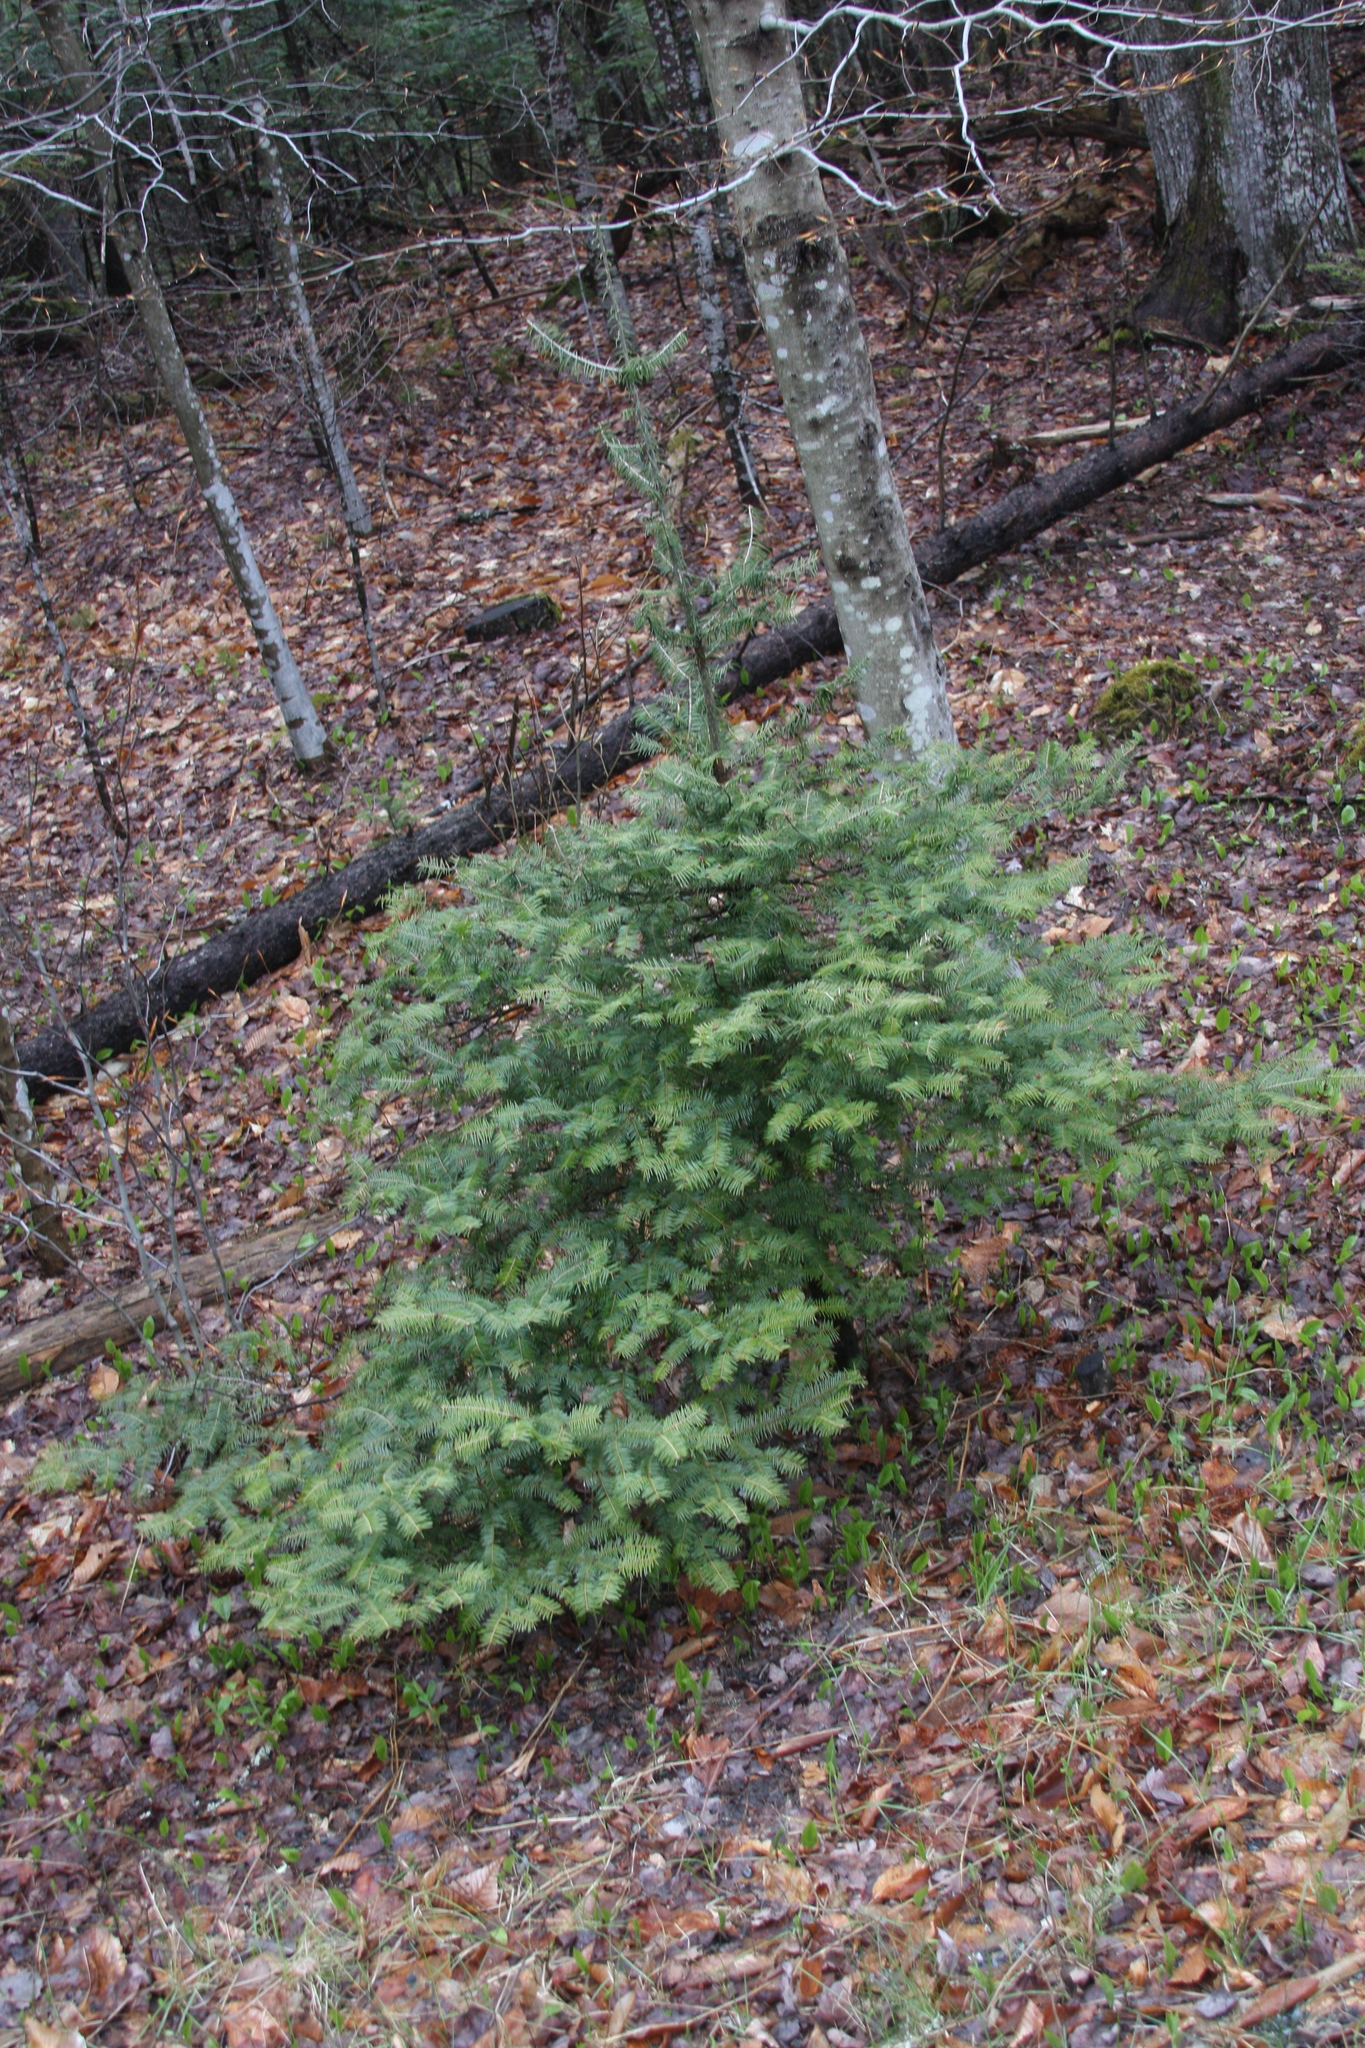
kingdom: Plantae
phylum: Tracheophyta
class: Pinopsida
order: Pinales
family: Pinaceae
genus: Abies
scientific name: Abies balsamea
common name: Balsam fir
